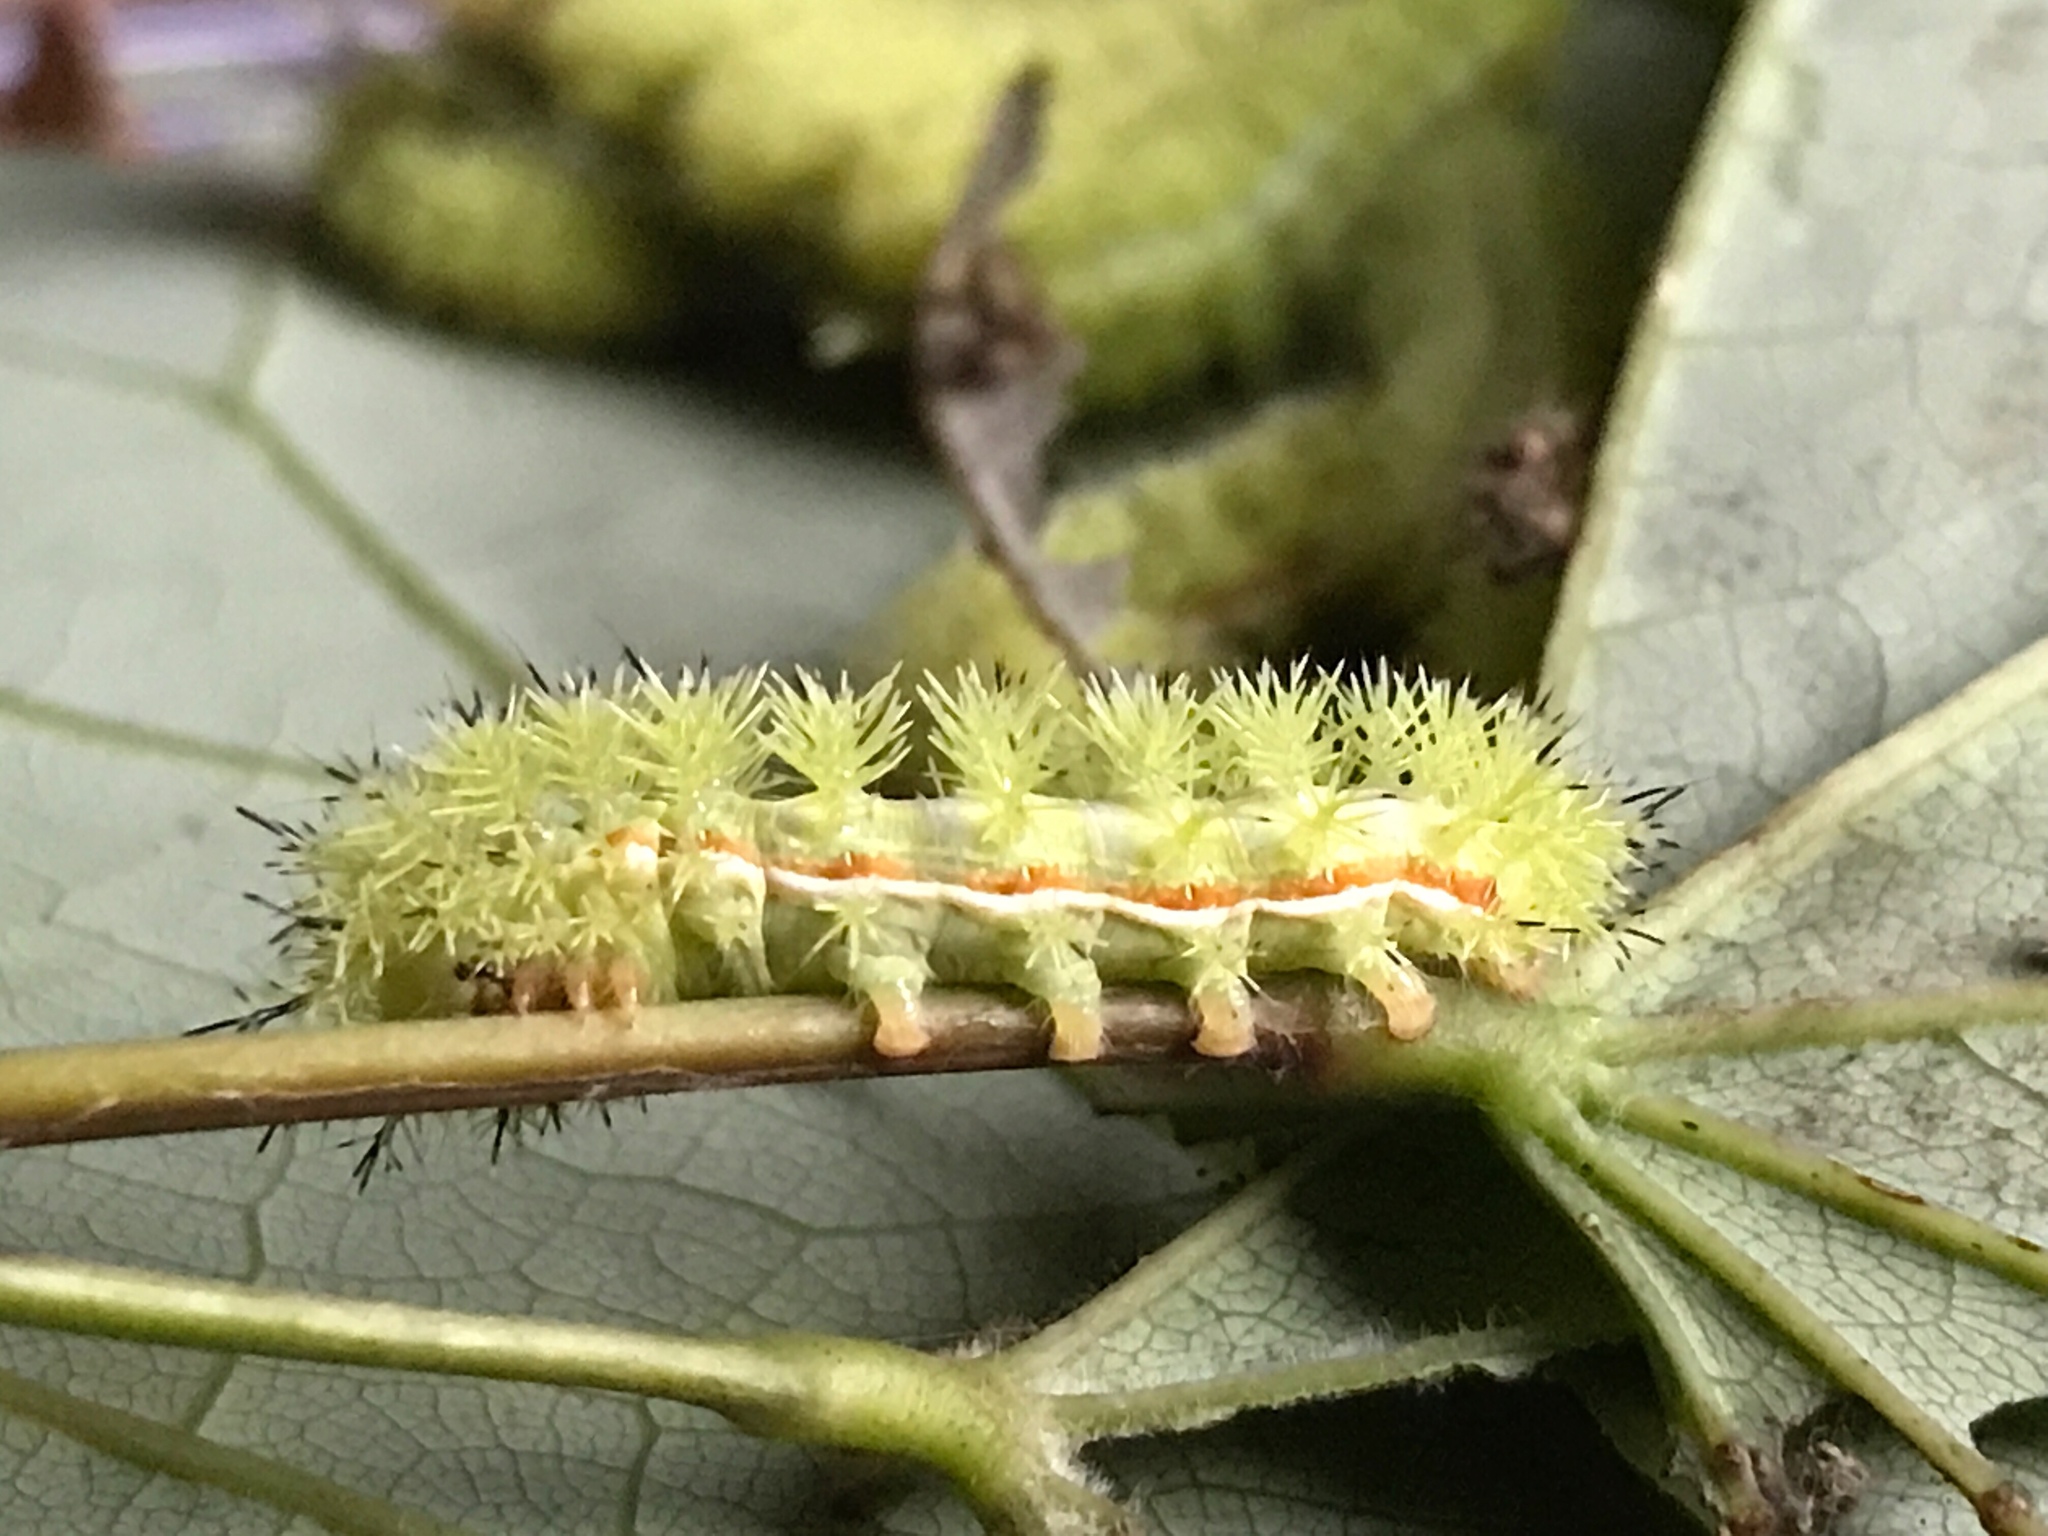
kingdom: Animalia
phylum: Arthropoda
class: Insecta
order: Lepidoptera
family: Saturniidae
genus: Automeris
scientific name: Automeris io
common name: Io moth
